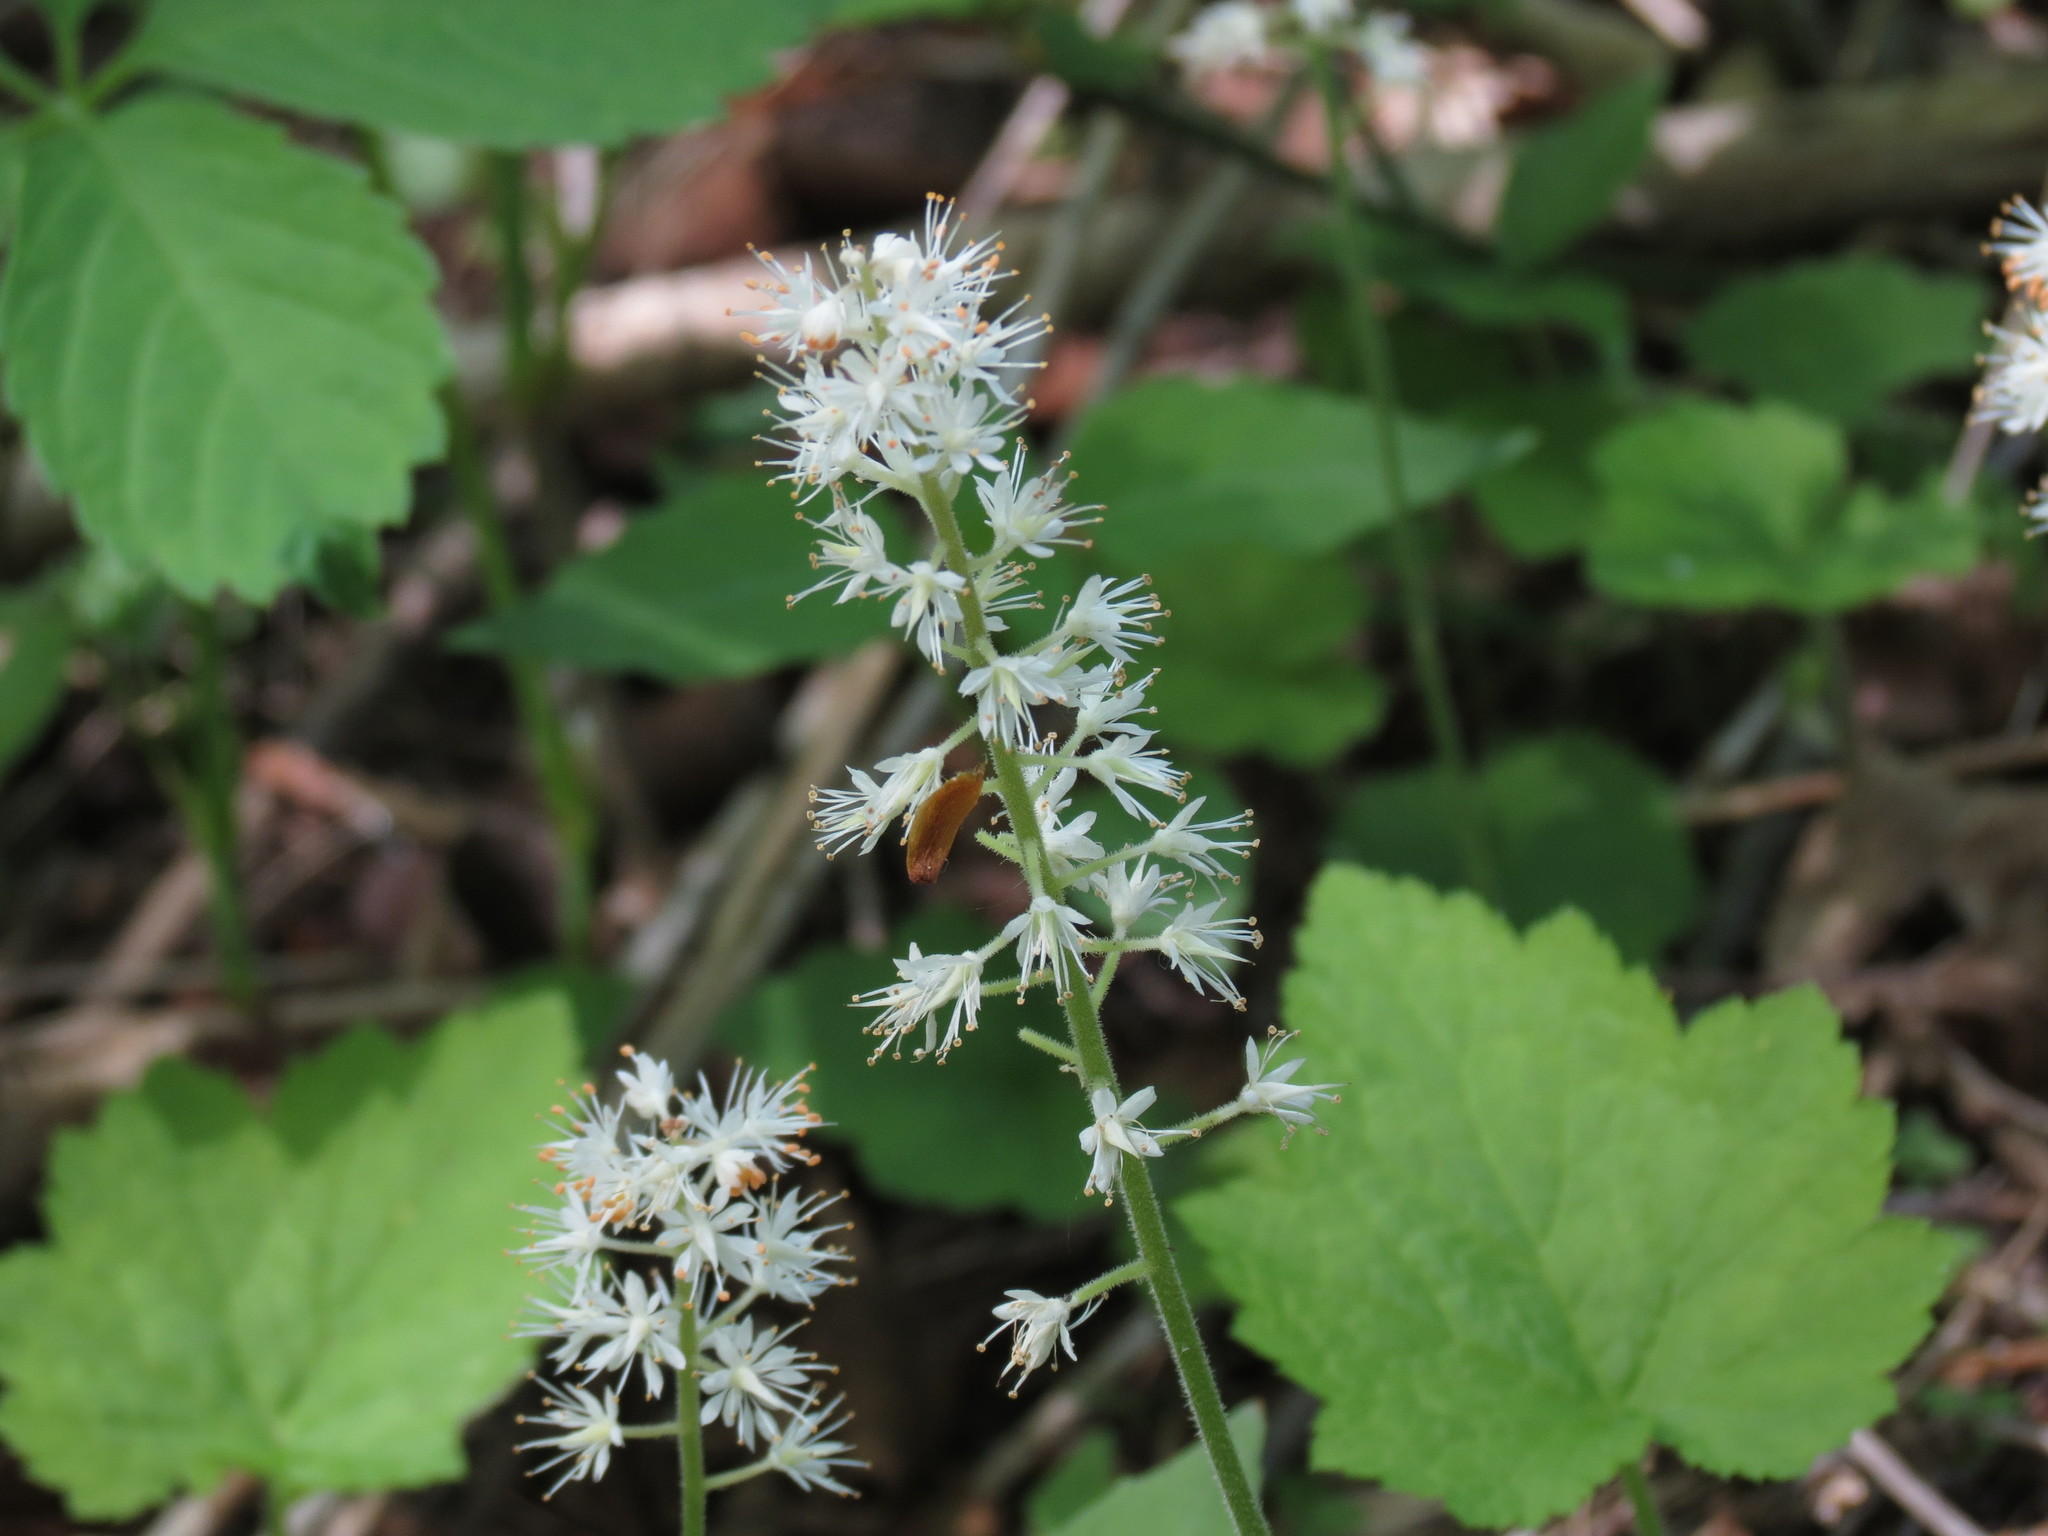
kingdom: Plantae
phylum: Tracheophyta
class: Magnoliopsida
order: Saxifragales
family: Saxifragaceae
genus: Tiarella
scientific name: Tiarella stolonifera
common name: Stoloniferous foamflower
